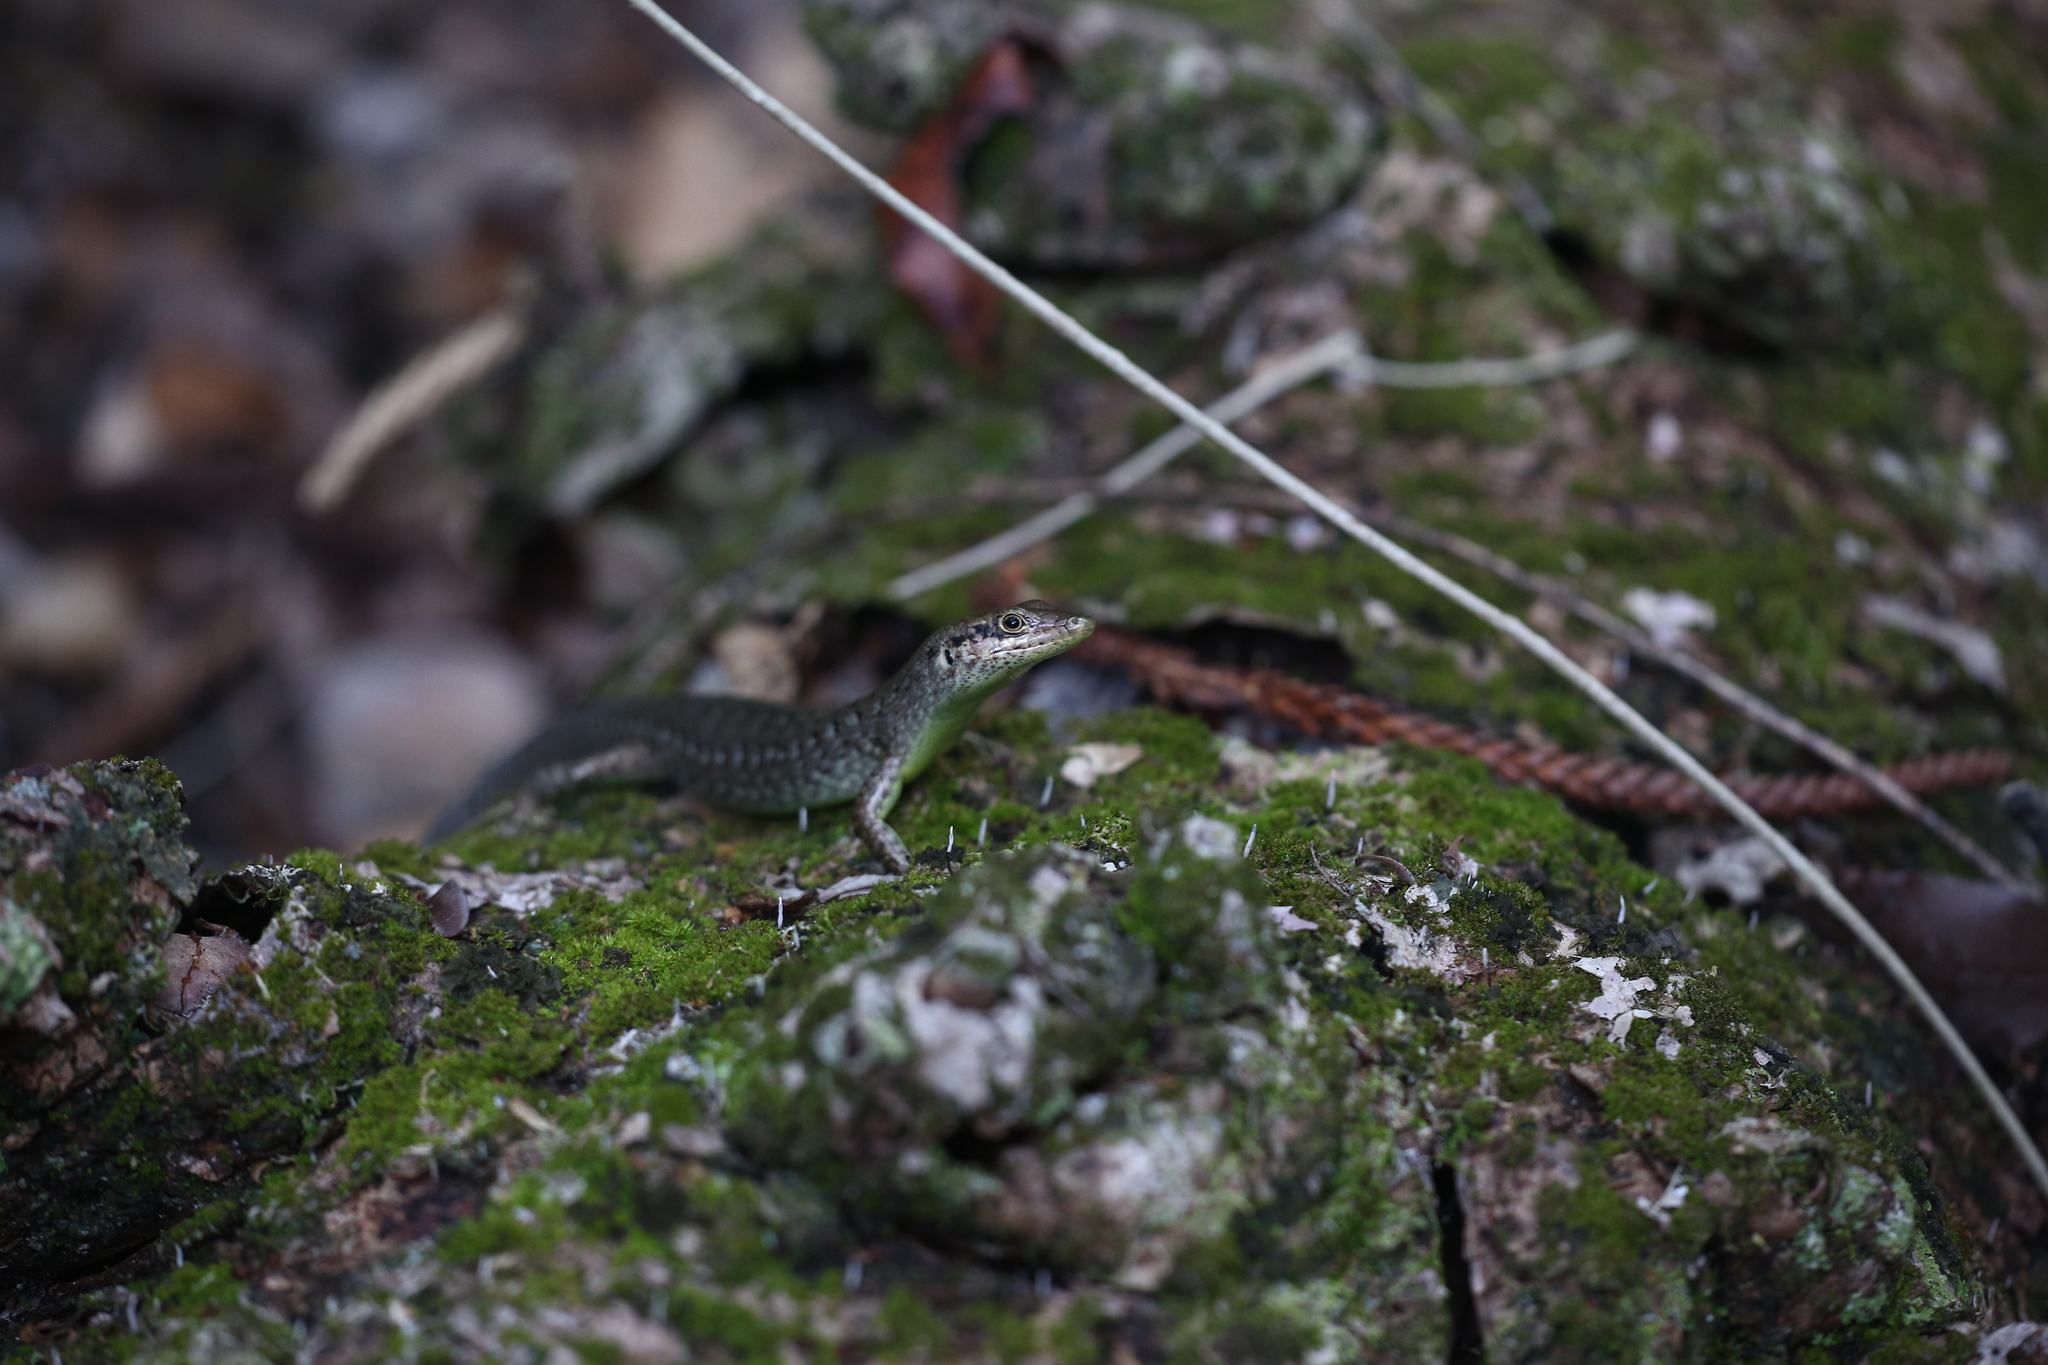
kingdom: Animalia
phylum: Chordata
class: Squamata
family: Scincidae
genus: Epibator
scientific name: Epibator nigrofasciolatus
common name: Green-bellied tree skink
